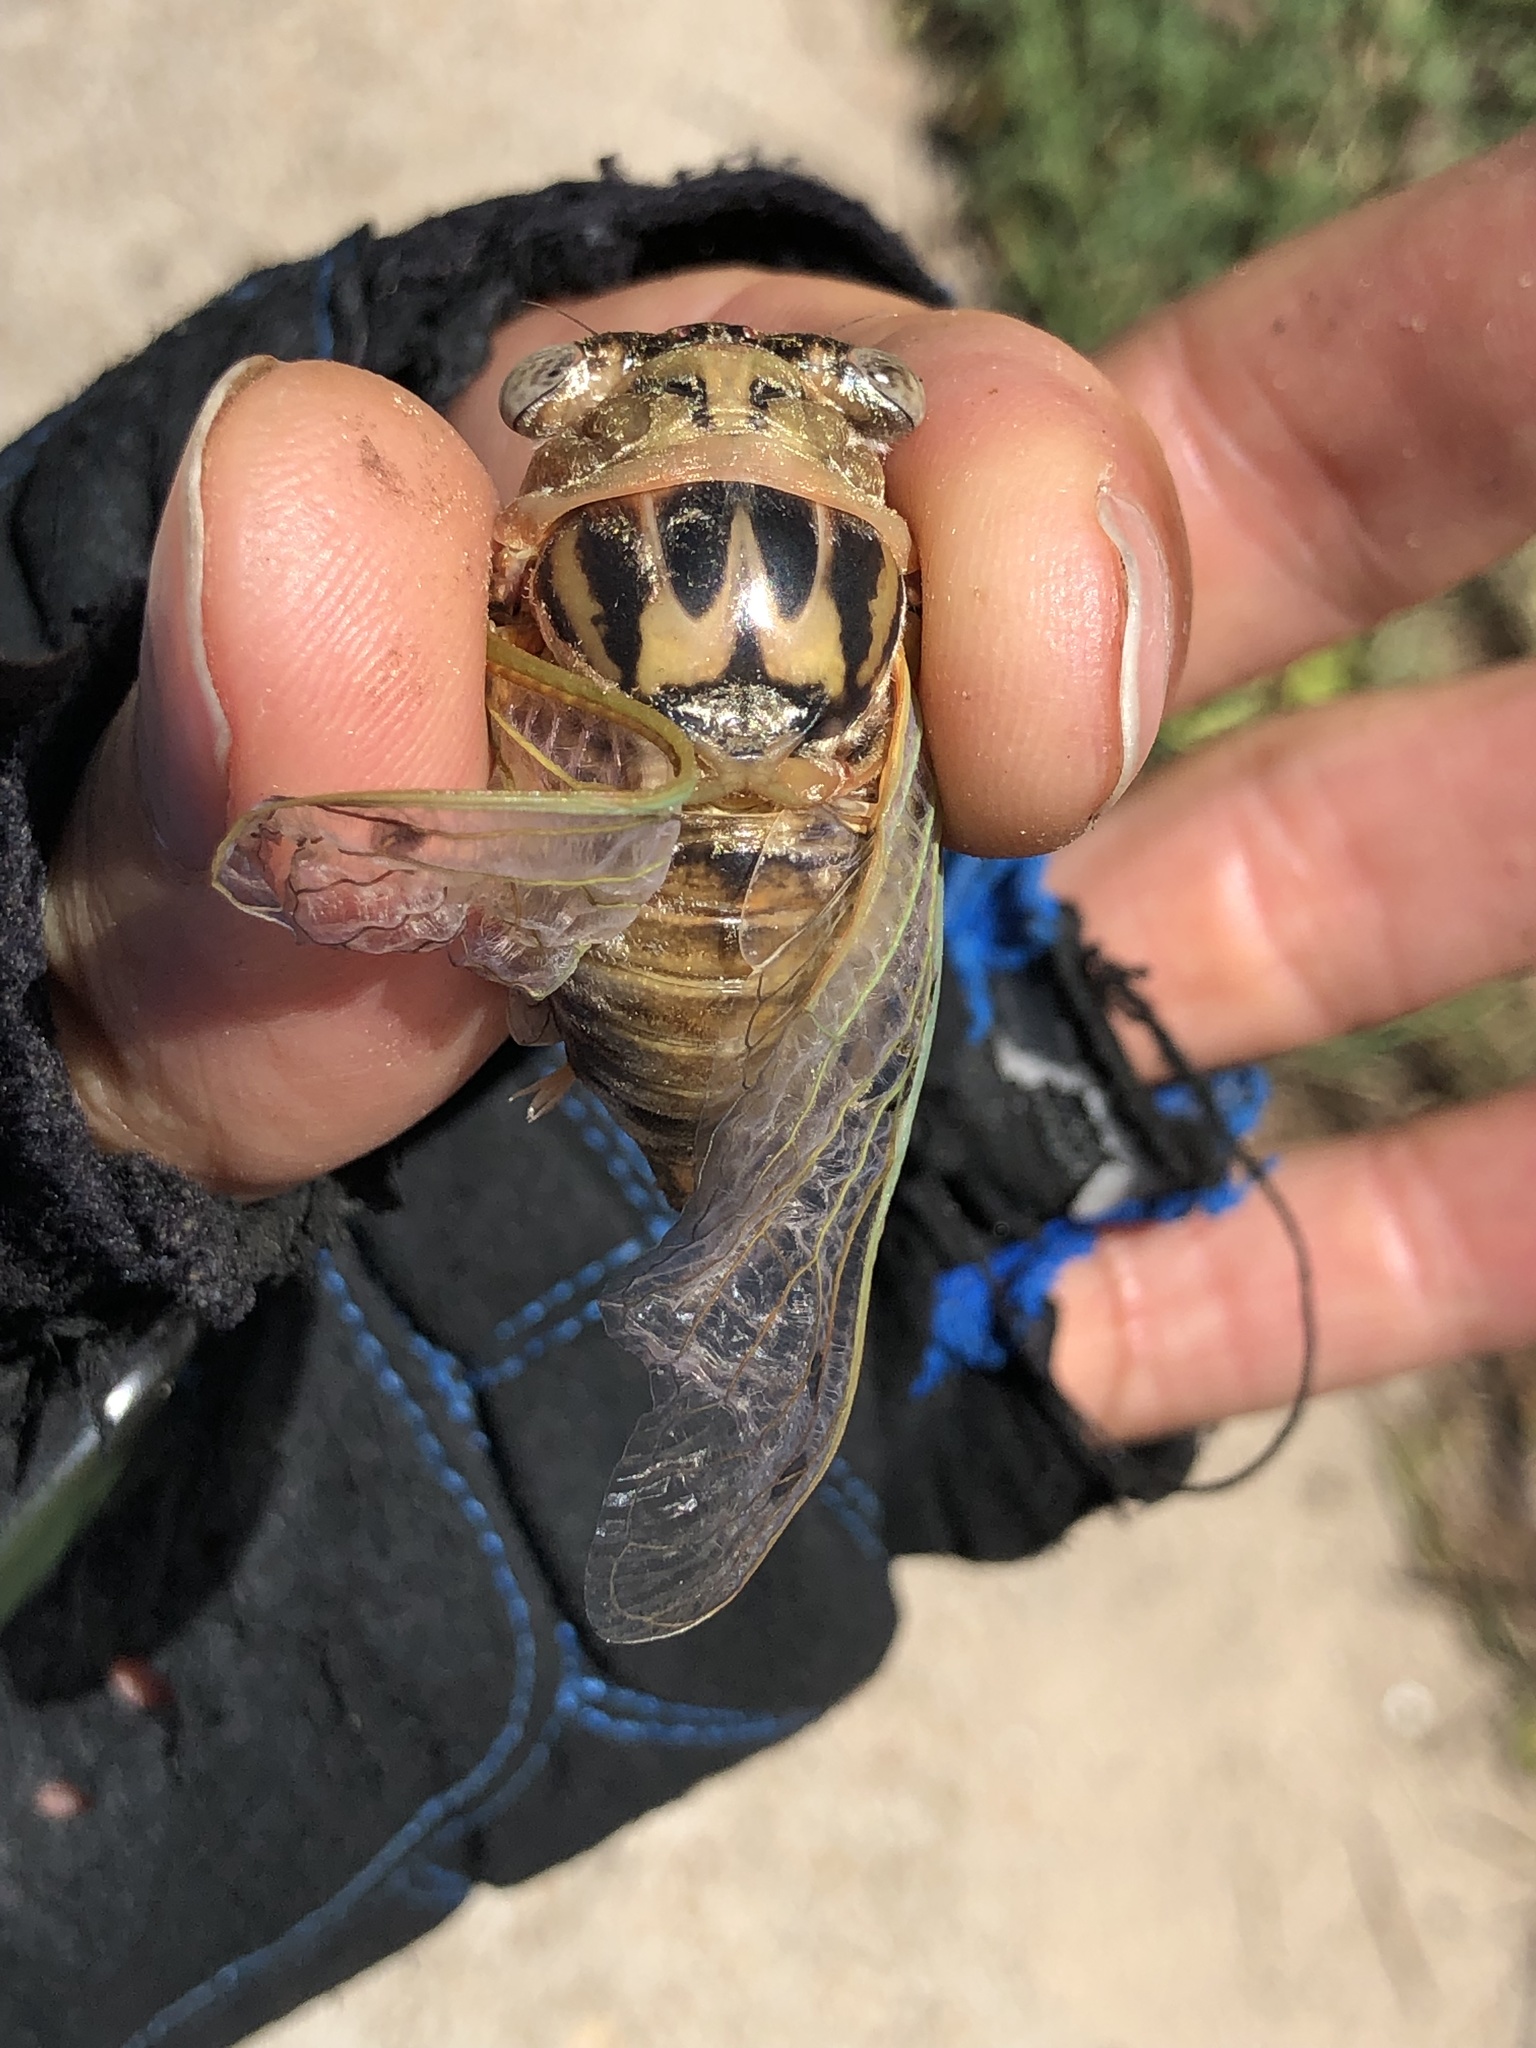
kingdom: Animalia
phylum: Arthropoda
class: Insecta
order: Hemiptera
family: Cicadidae
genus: Megatibicen
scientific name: Megatibicen resh
